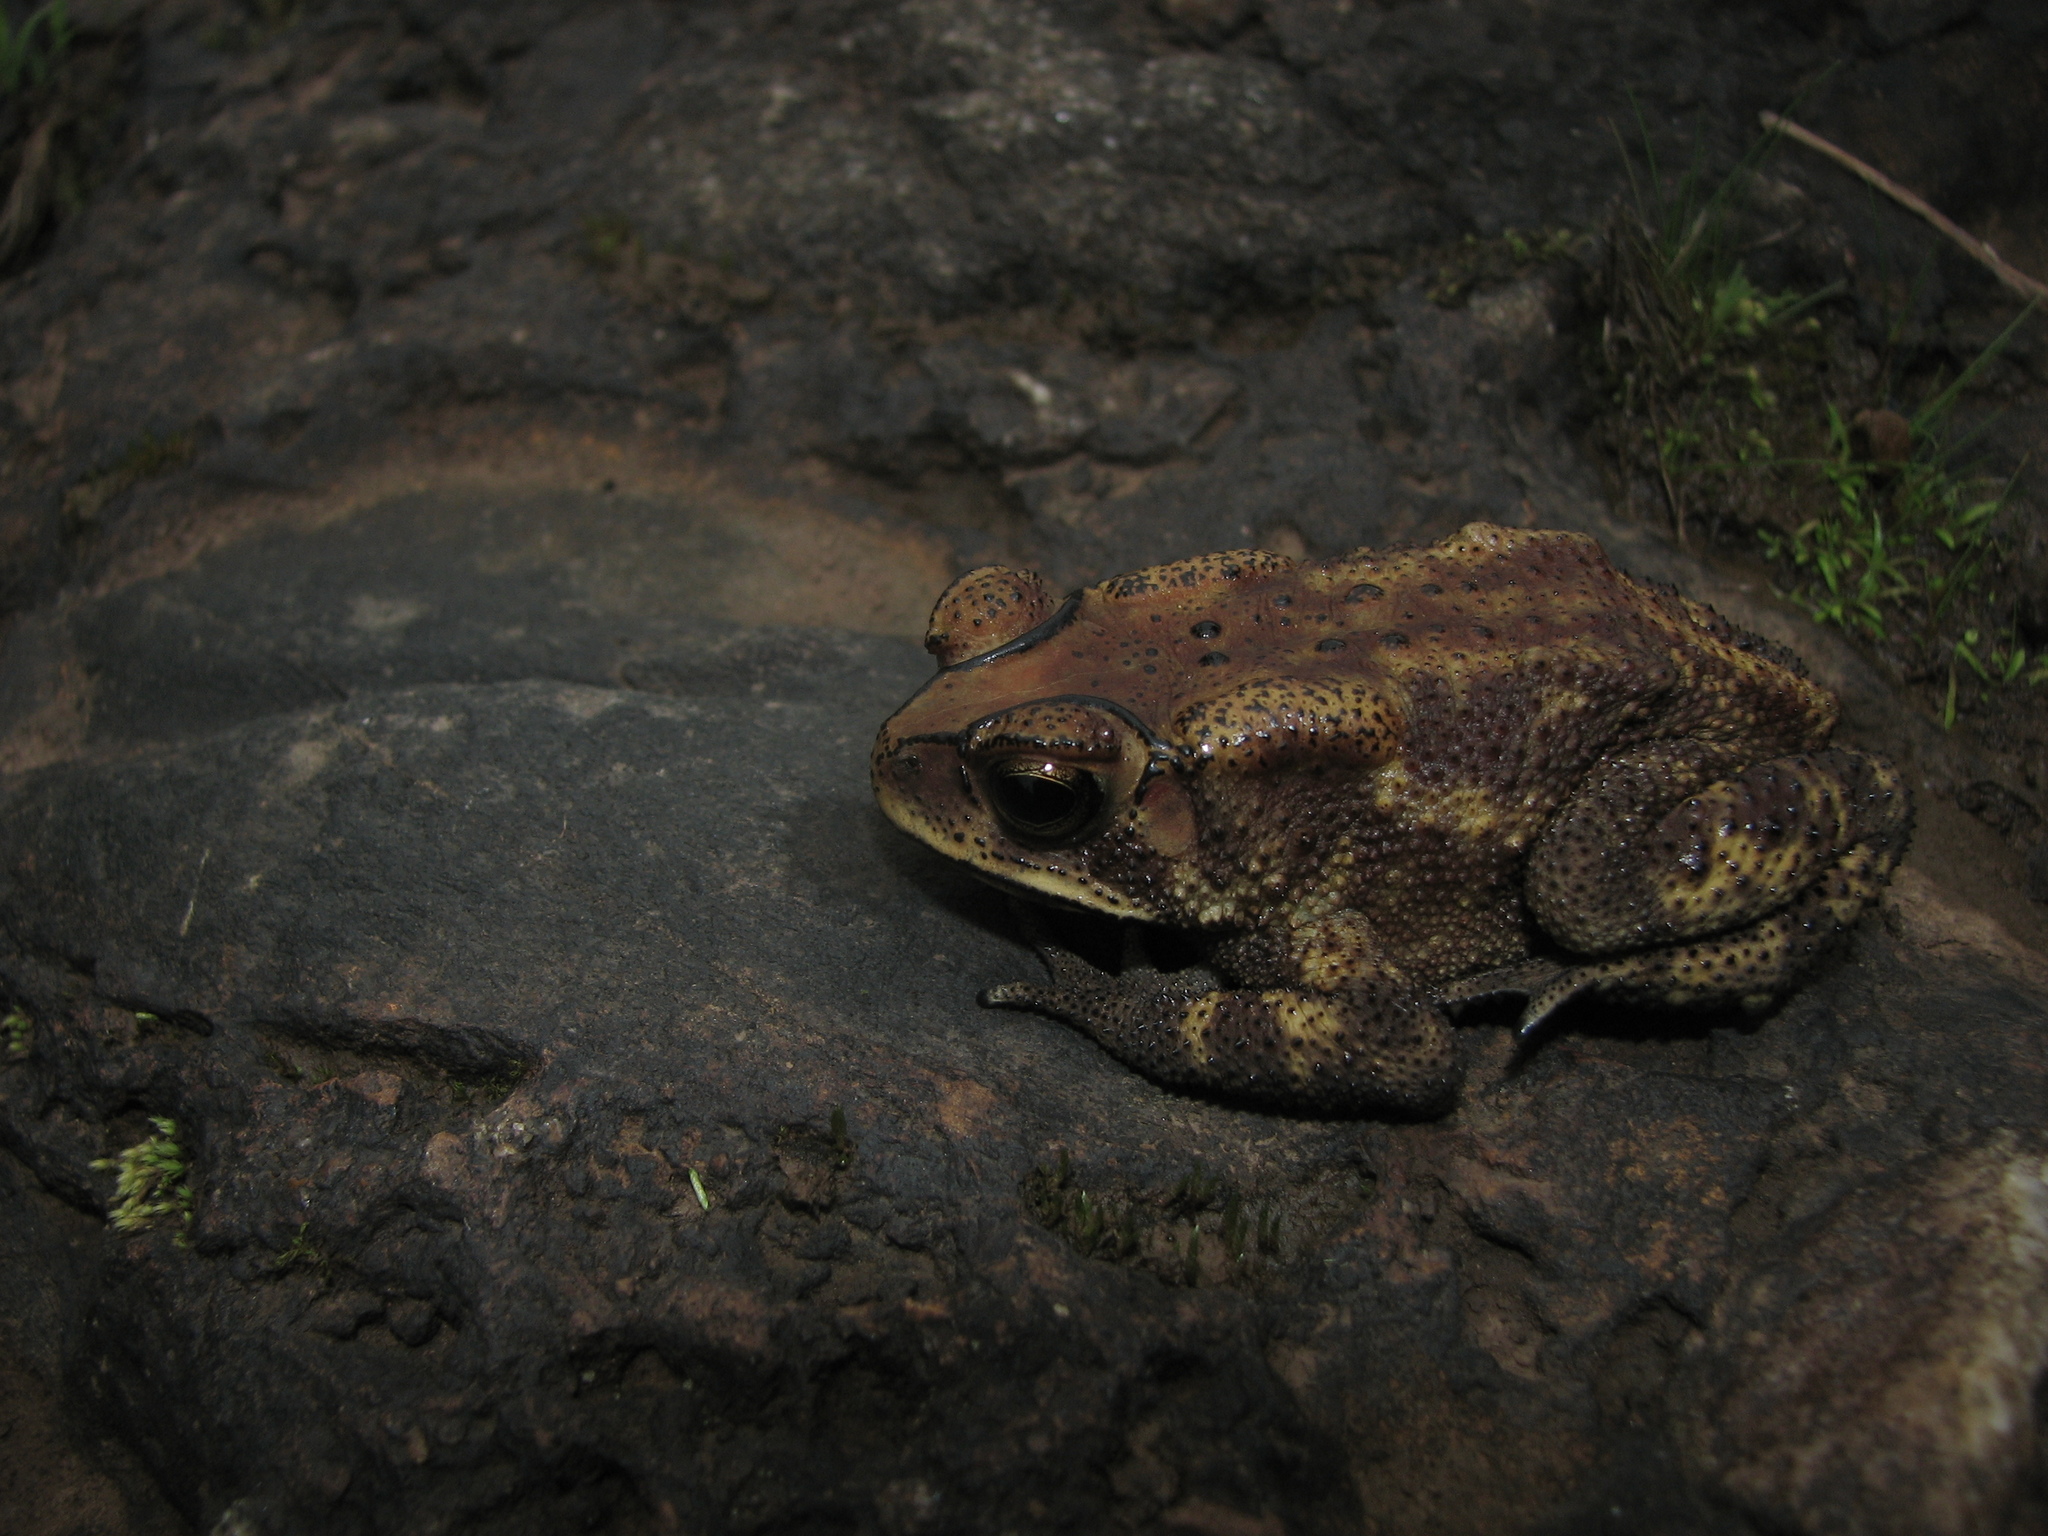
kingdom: Animalia
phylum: Chordata
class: Amphibia
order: Anura
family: Bufonidae
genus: Duttaphrynus
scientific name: Duttaphrynus melanostictus
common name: Common sunda toad
